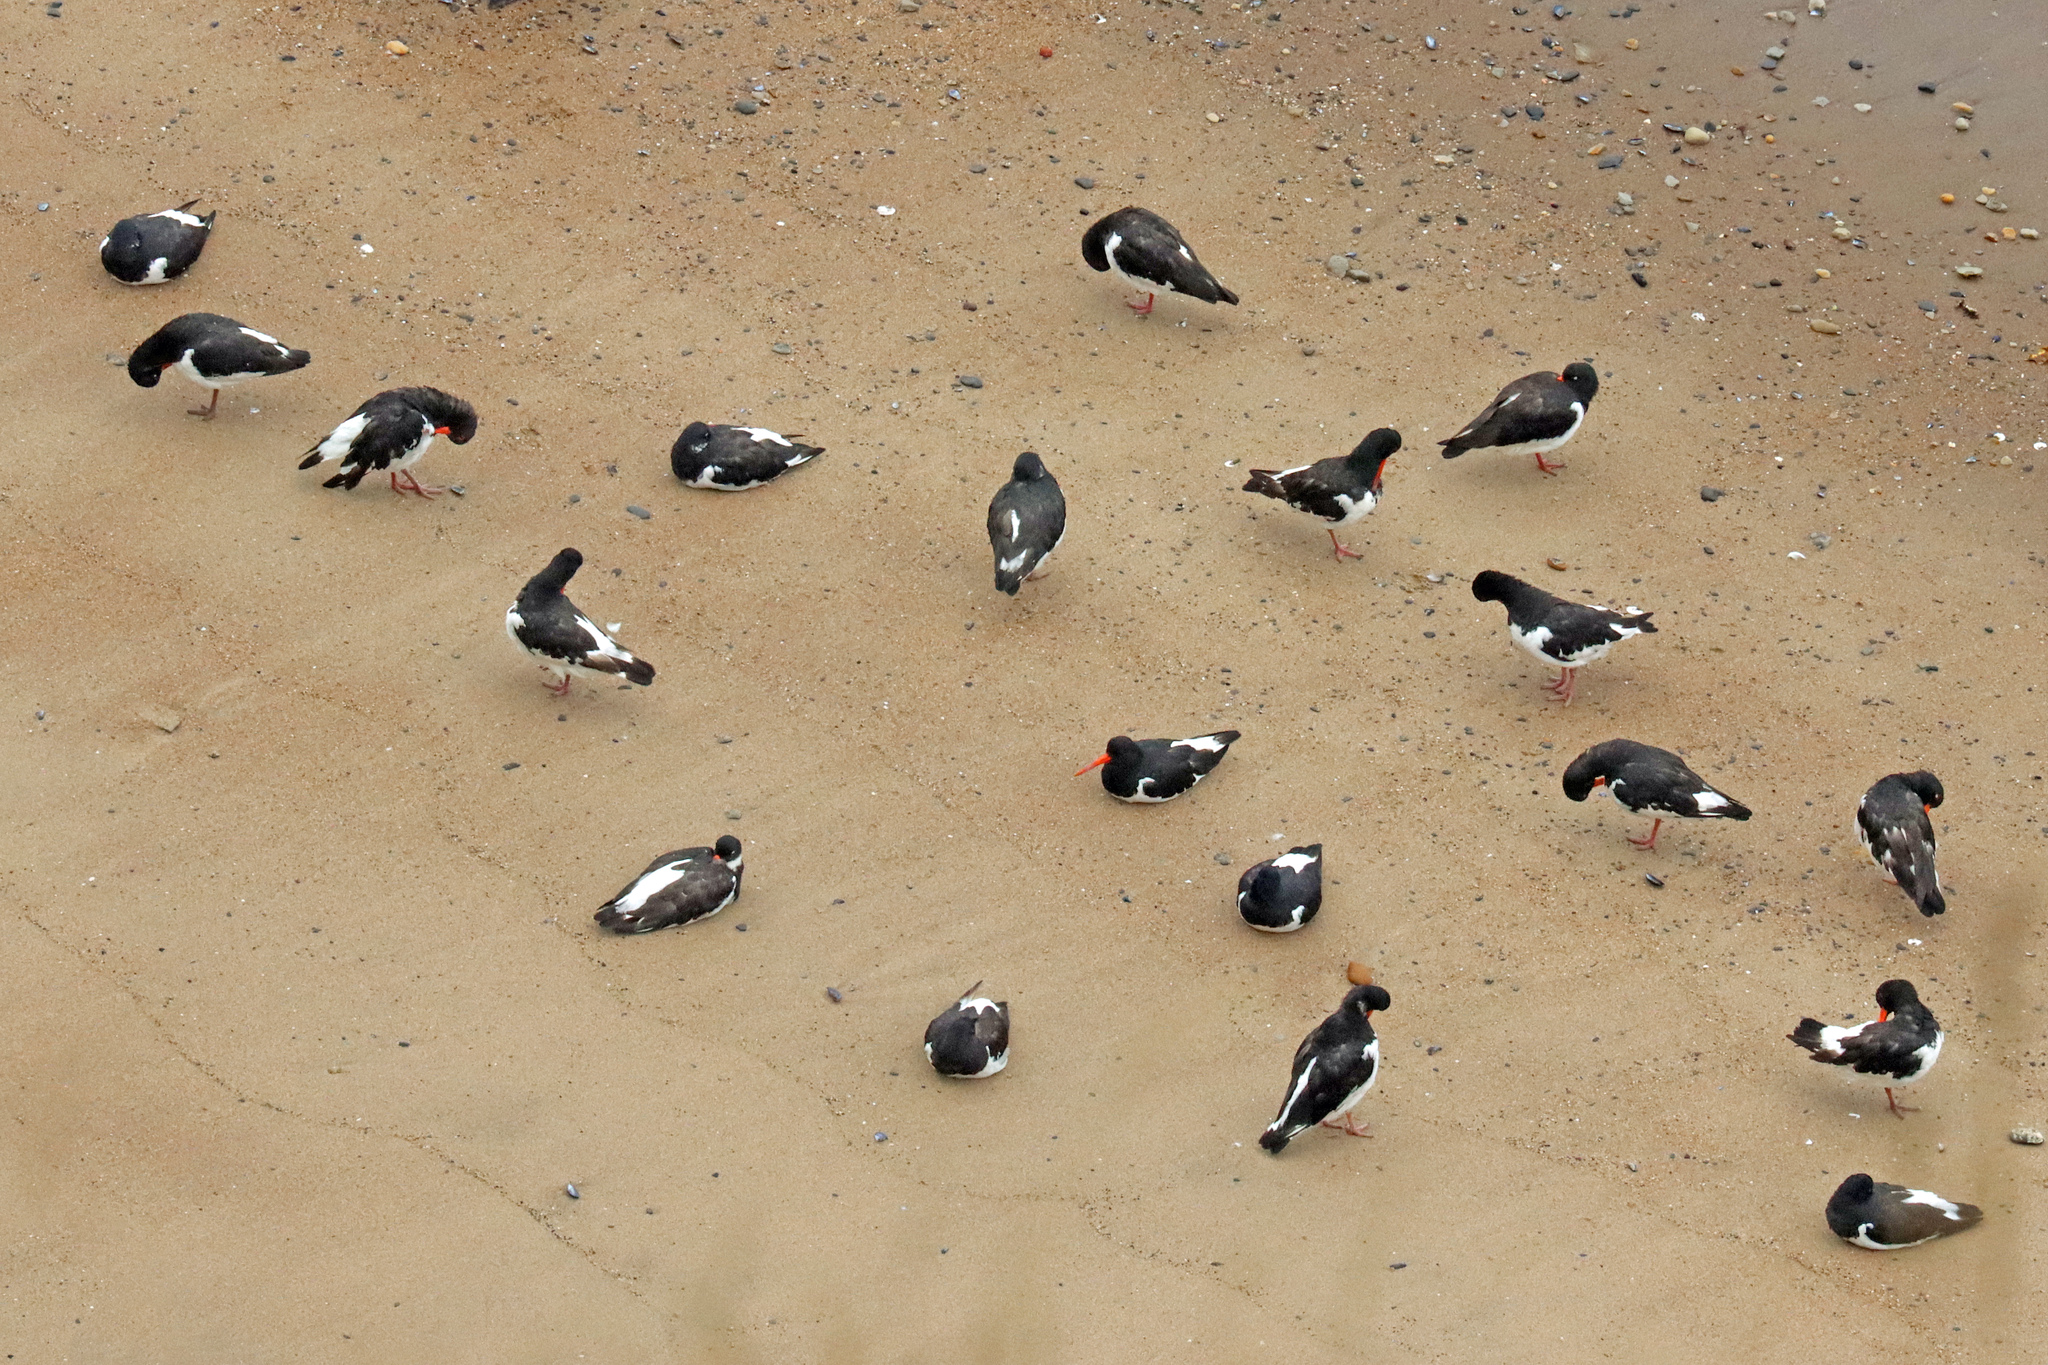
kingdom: Animalia
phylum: Chordata
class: Aves
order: Charadriiformes
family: Haematopodidae
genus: Haematopus
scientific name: Haematopus ostralegus
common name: Eurasian oystercatcher
